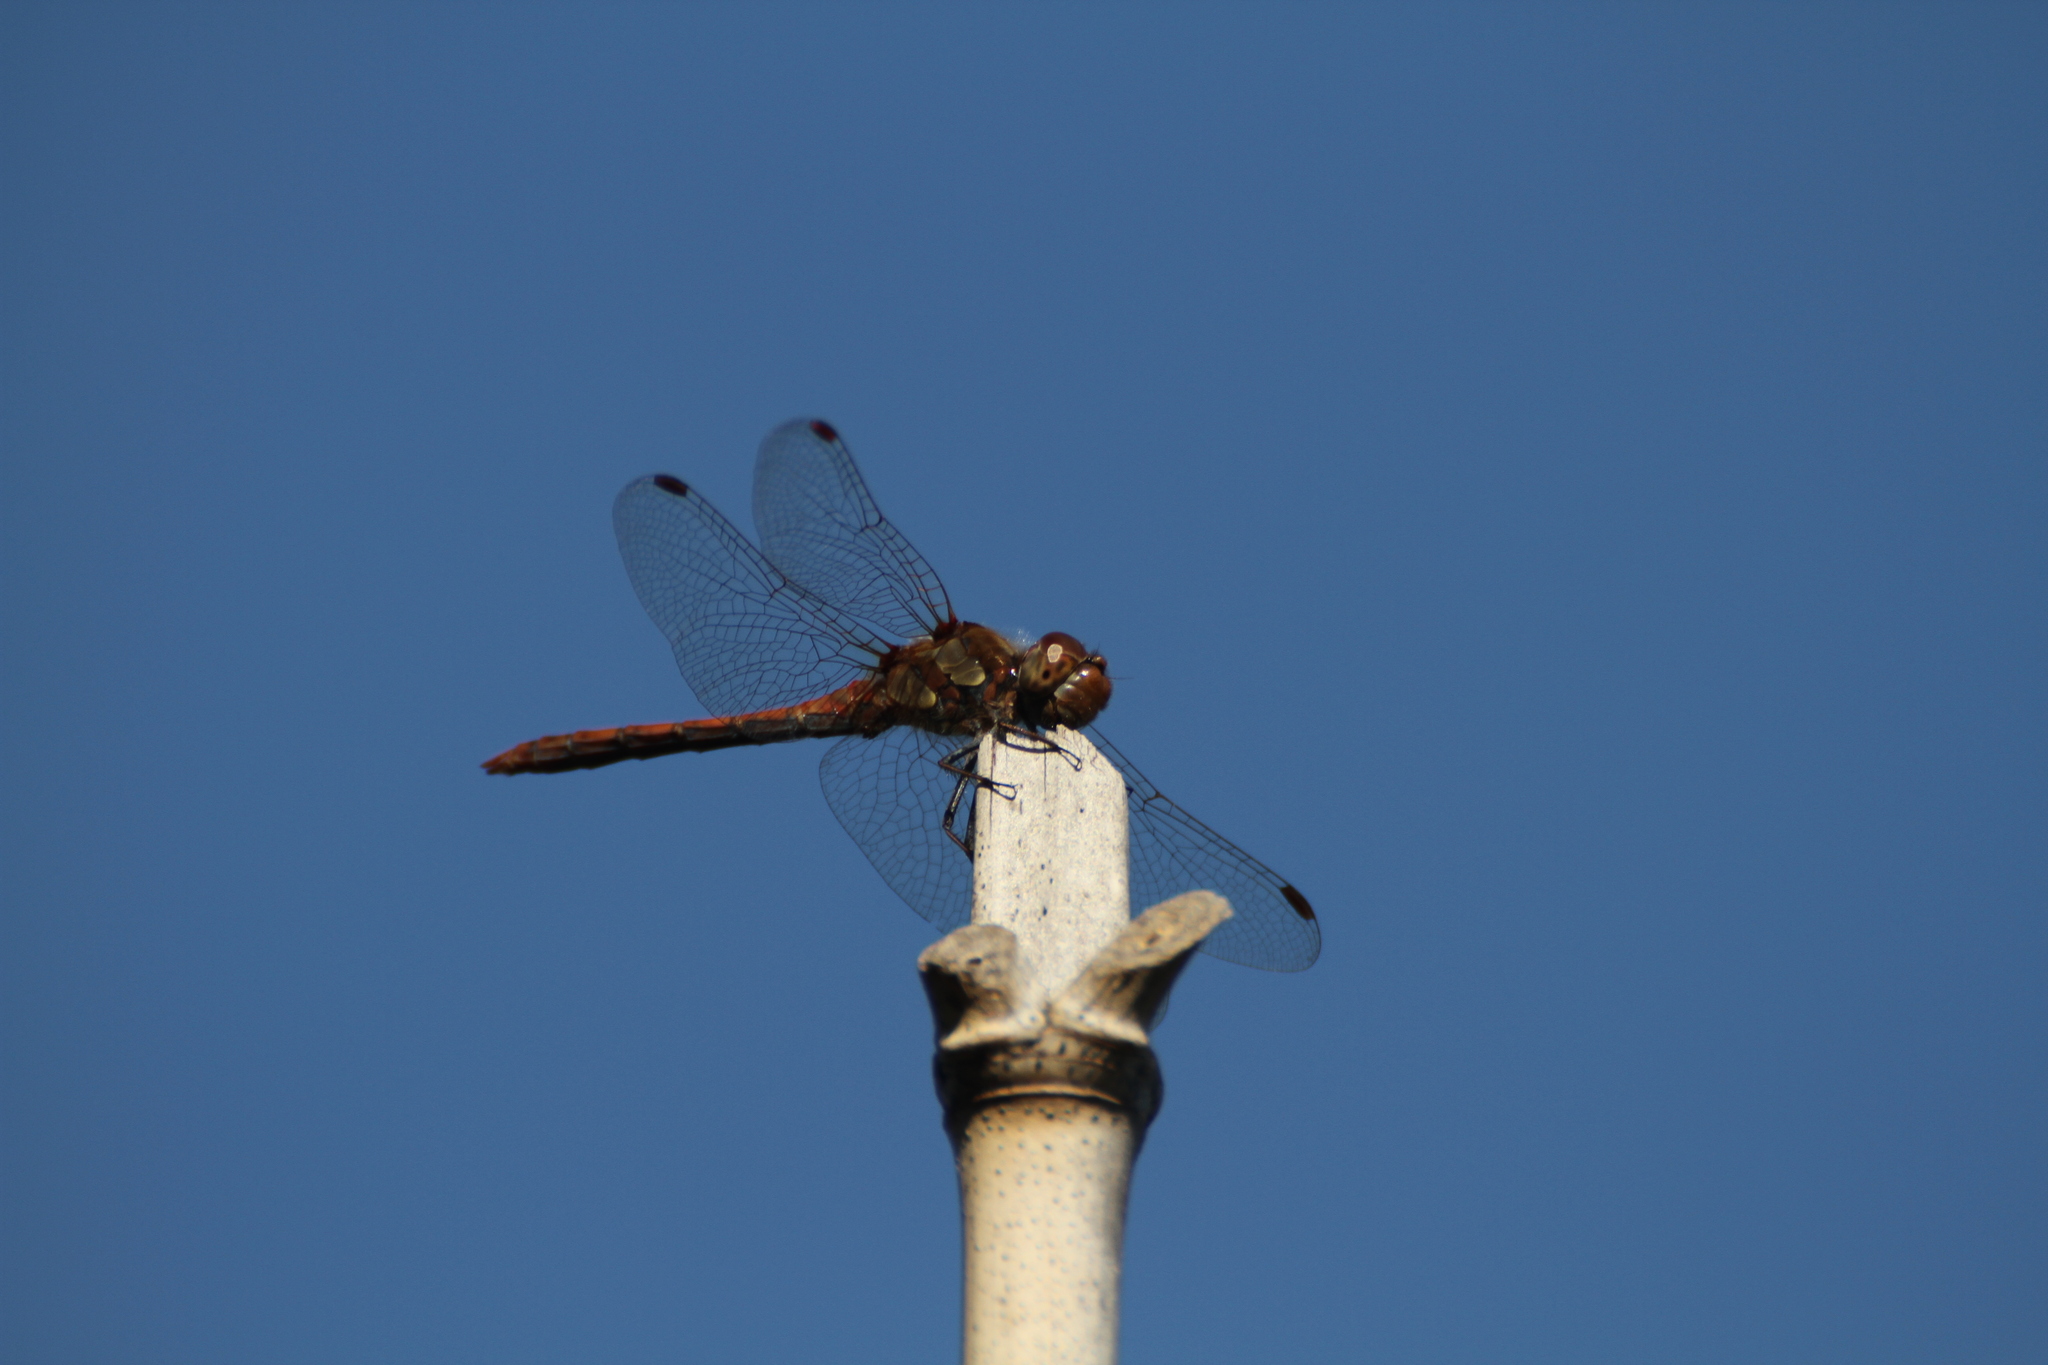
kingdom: Animalia
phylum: Arthropoda
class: Insecta
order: Odonata
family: Libellulidae
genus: Sympetrum
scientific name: Sympetrum striolatum
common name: Common darter
